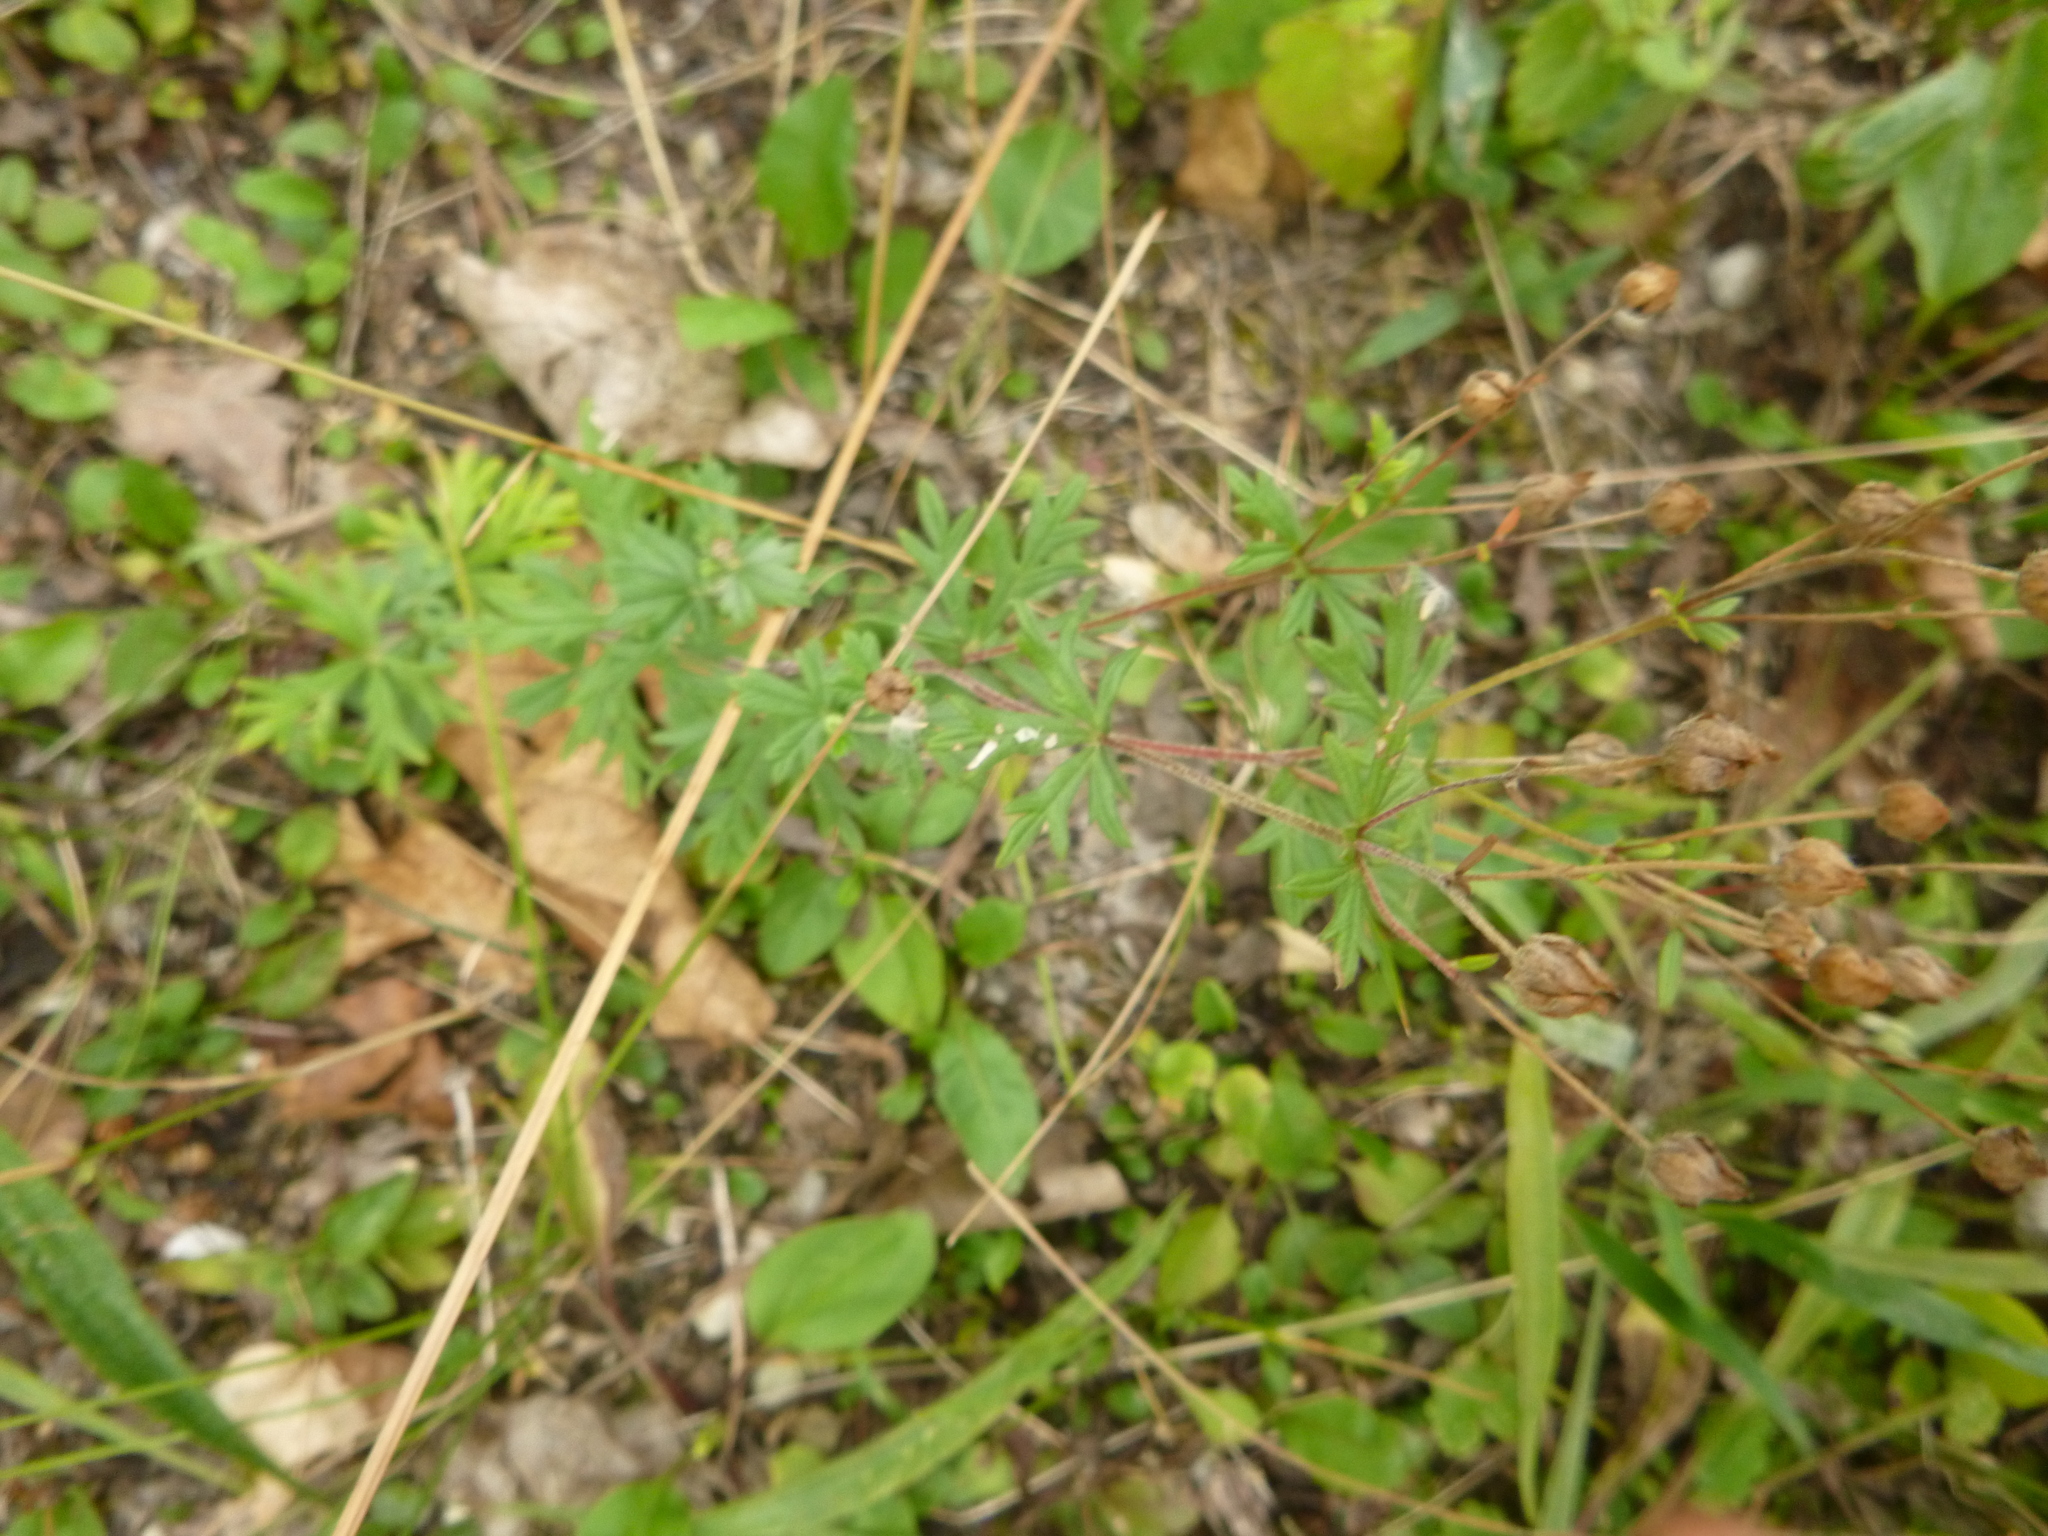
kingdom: Plantae
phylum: Tracheophyta
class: Magnoliopsida
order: Rosales
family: Rosaceae
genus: Potentilla
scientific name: Potentilla argentea
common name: Hoary cinquefoil
